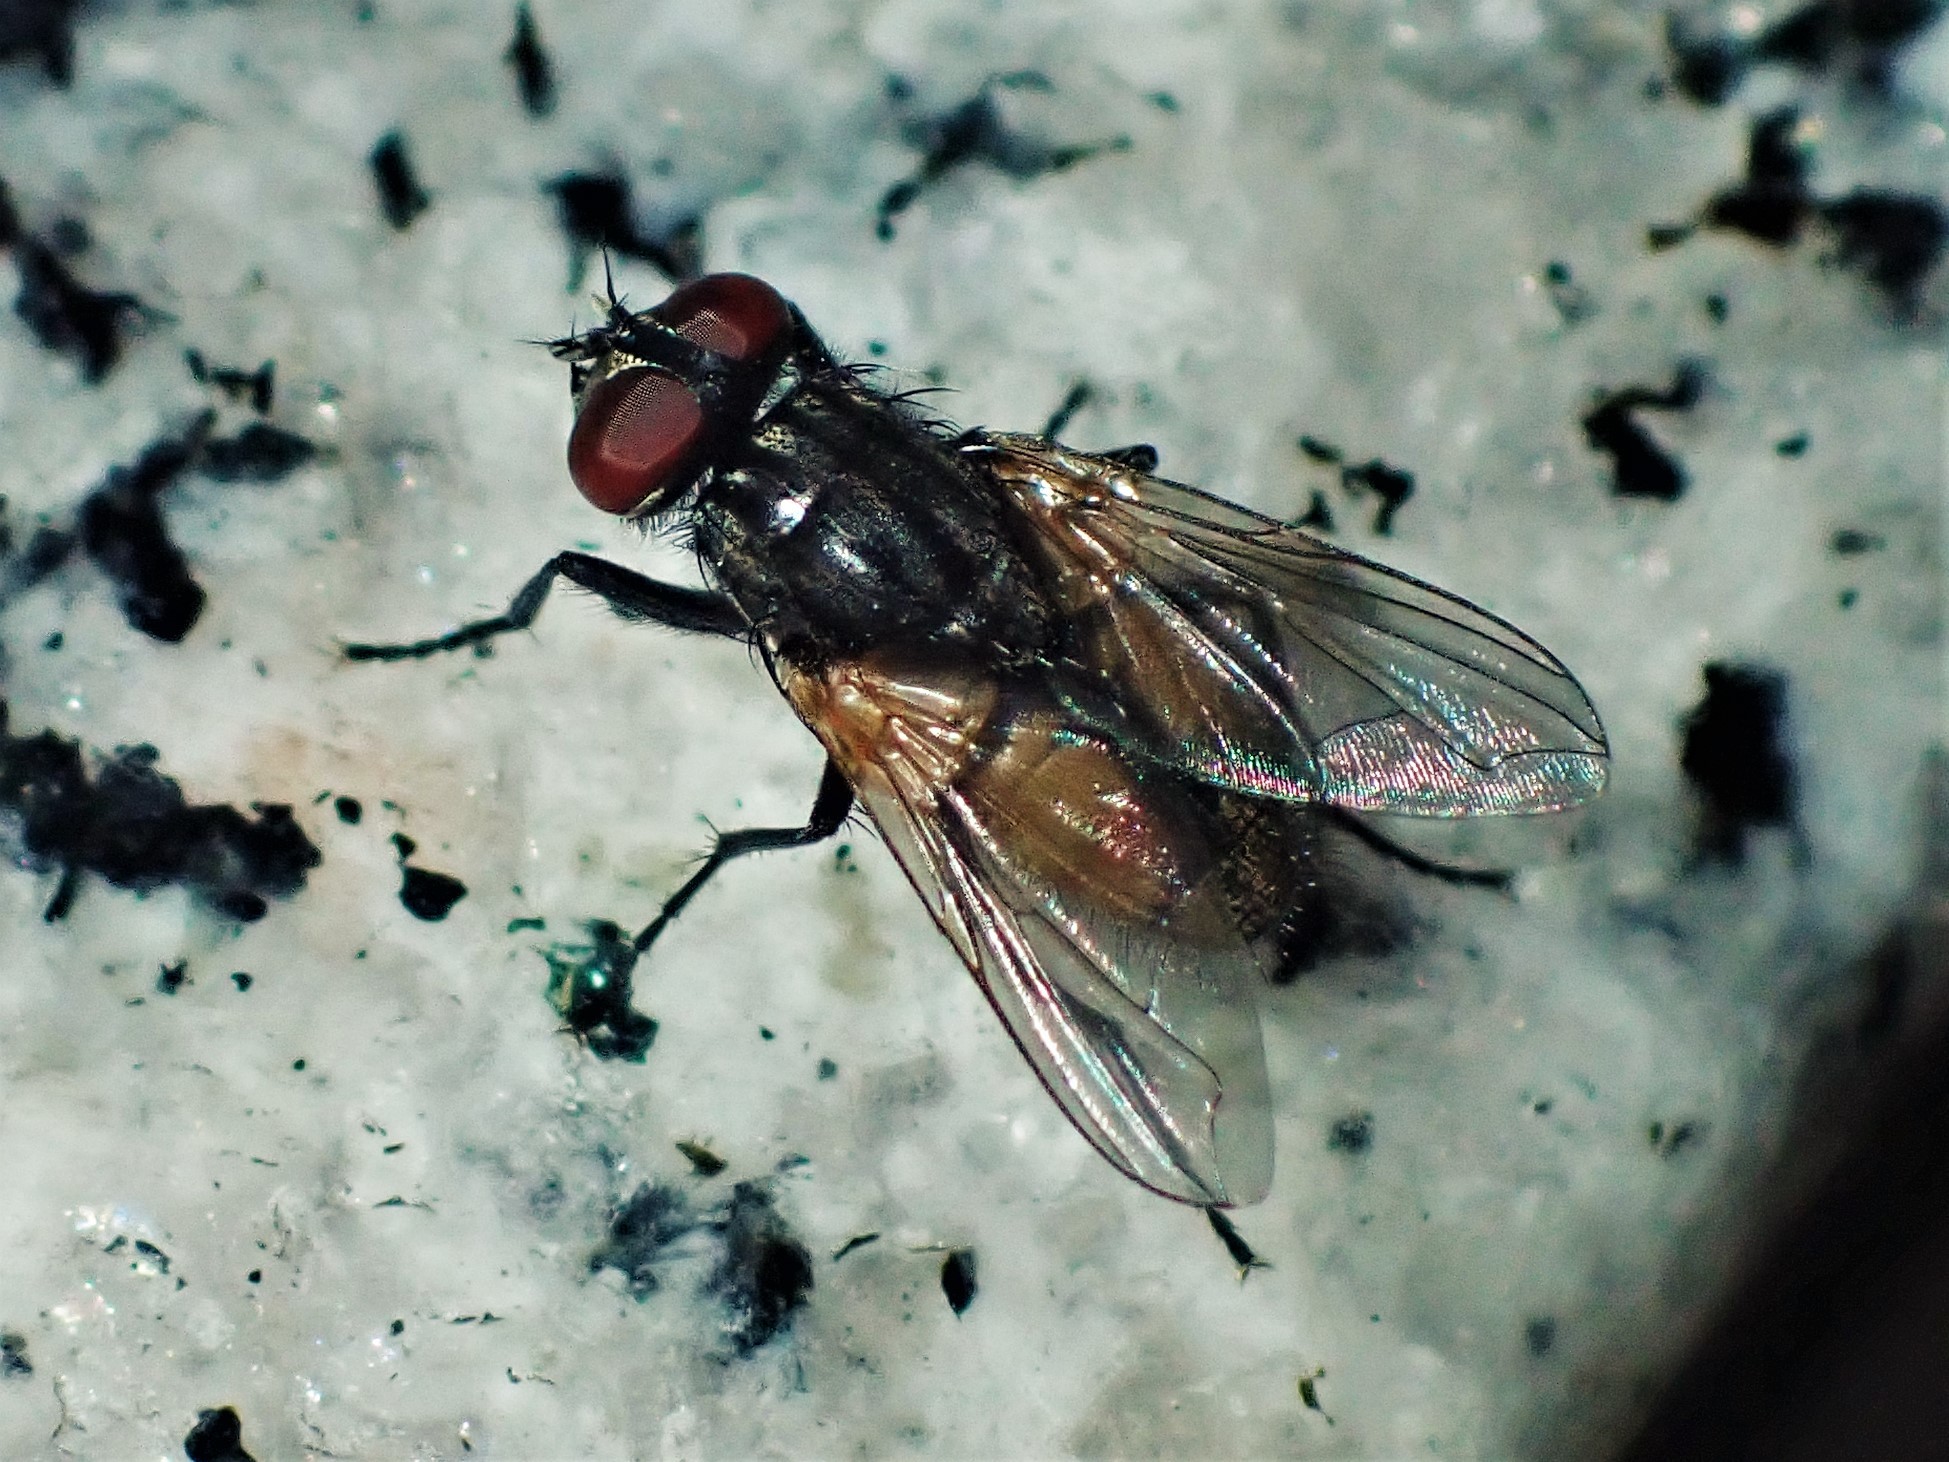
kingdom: Animalia
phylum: Arthropoda
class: Insecta
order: Diptera
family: Muscidae
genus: Musca
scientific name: Musca domestica
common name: House fly
